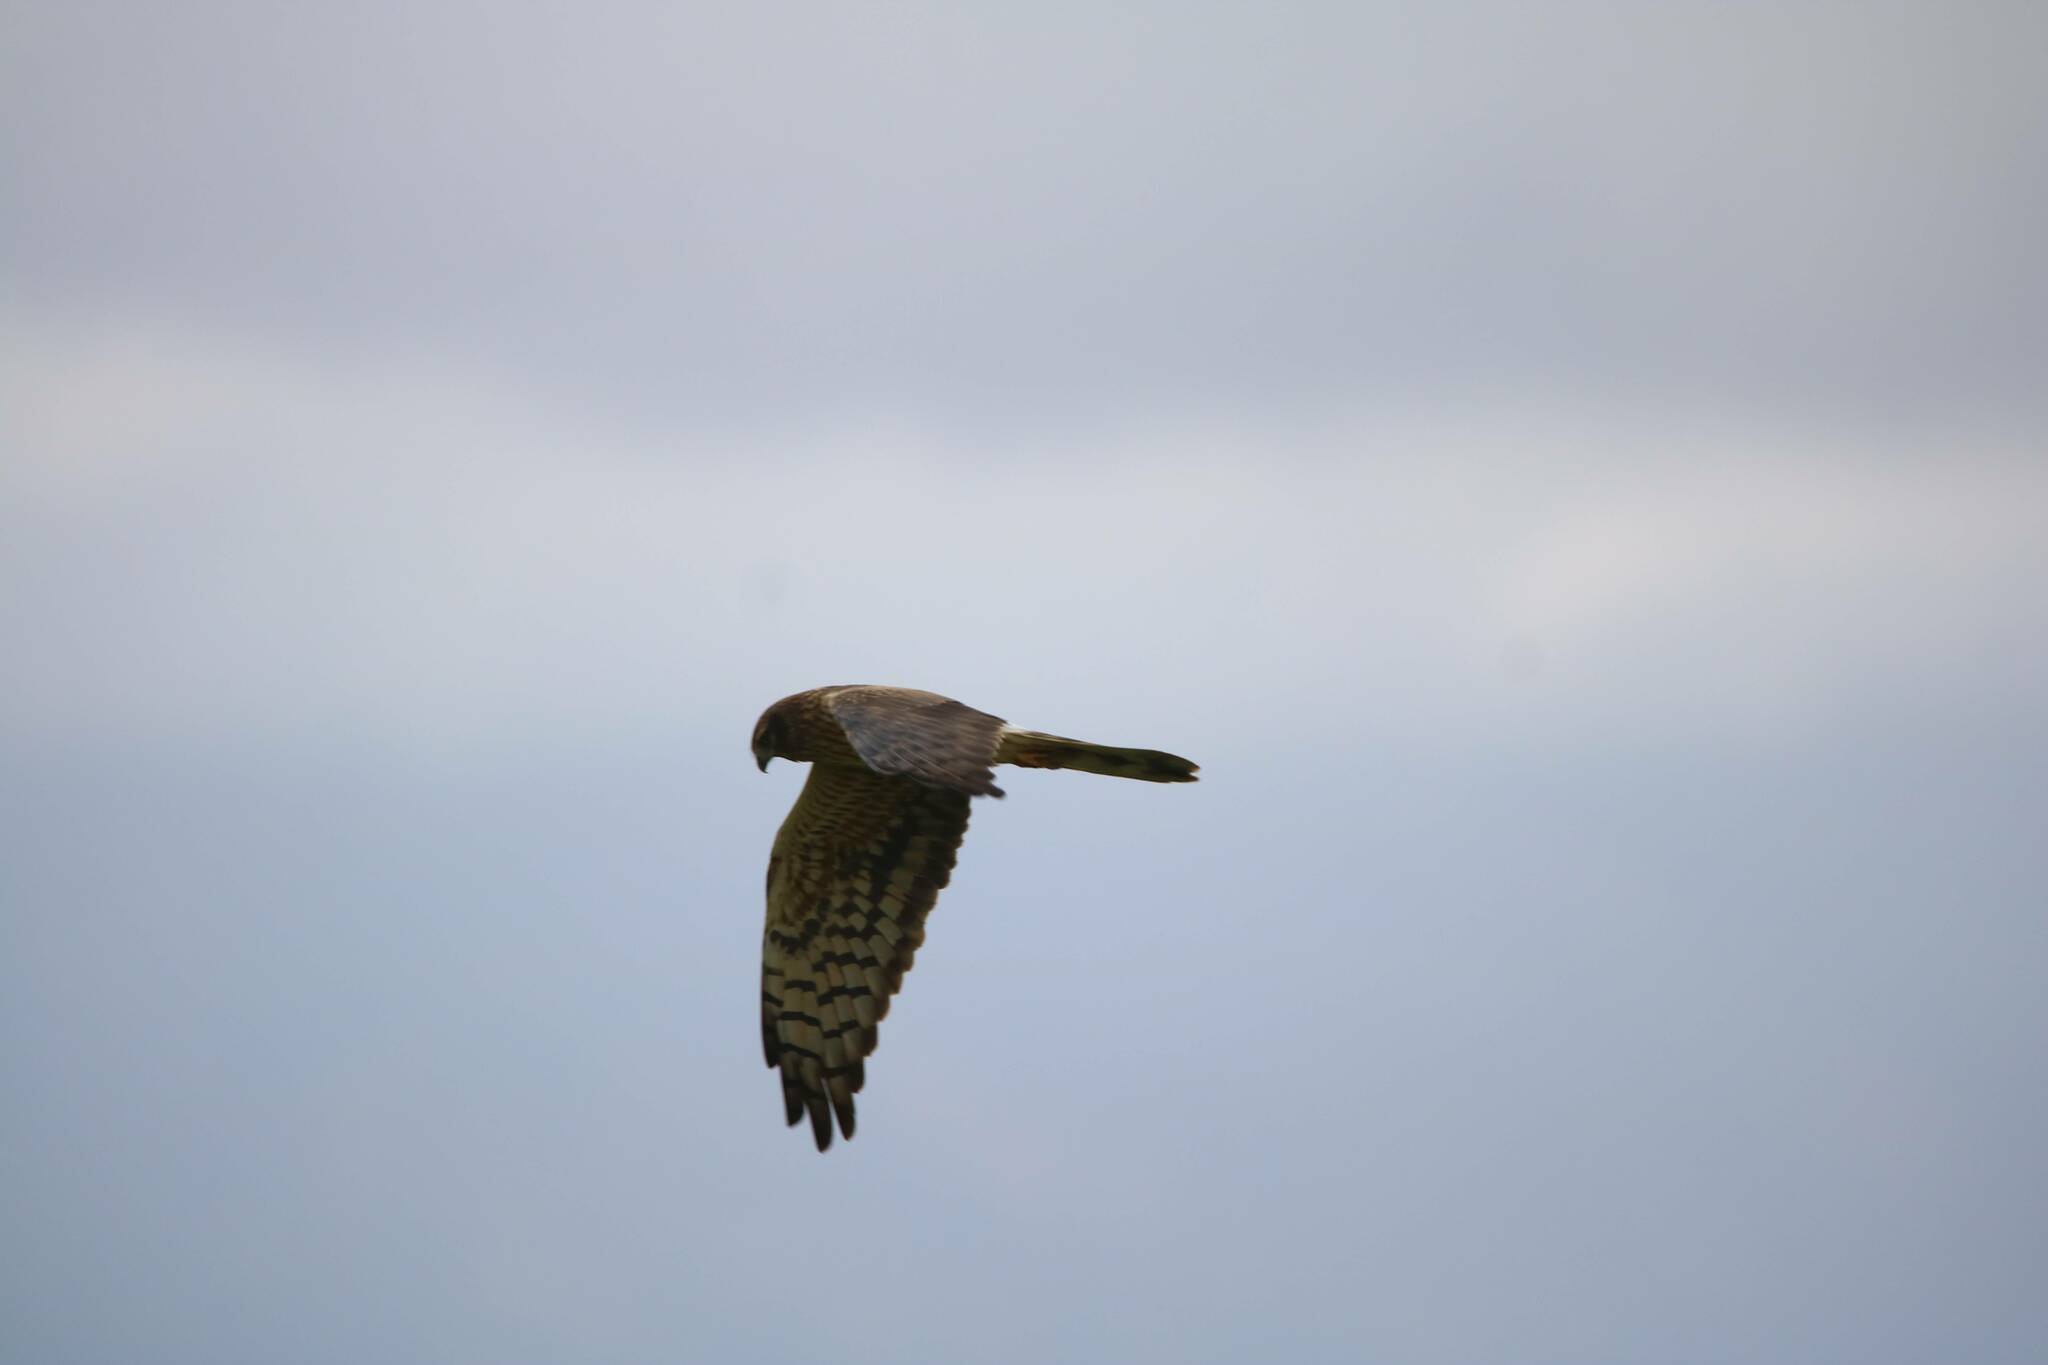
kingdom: Animalia
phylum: Chordata
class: Aves
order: Accipitriformes
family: Accipitridae
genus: Circus
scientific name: Circus pygargus
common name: Montagu's harrier
